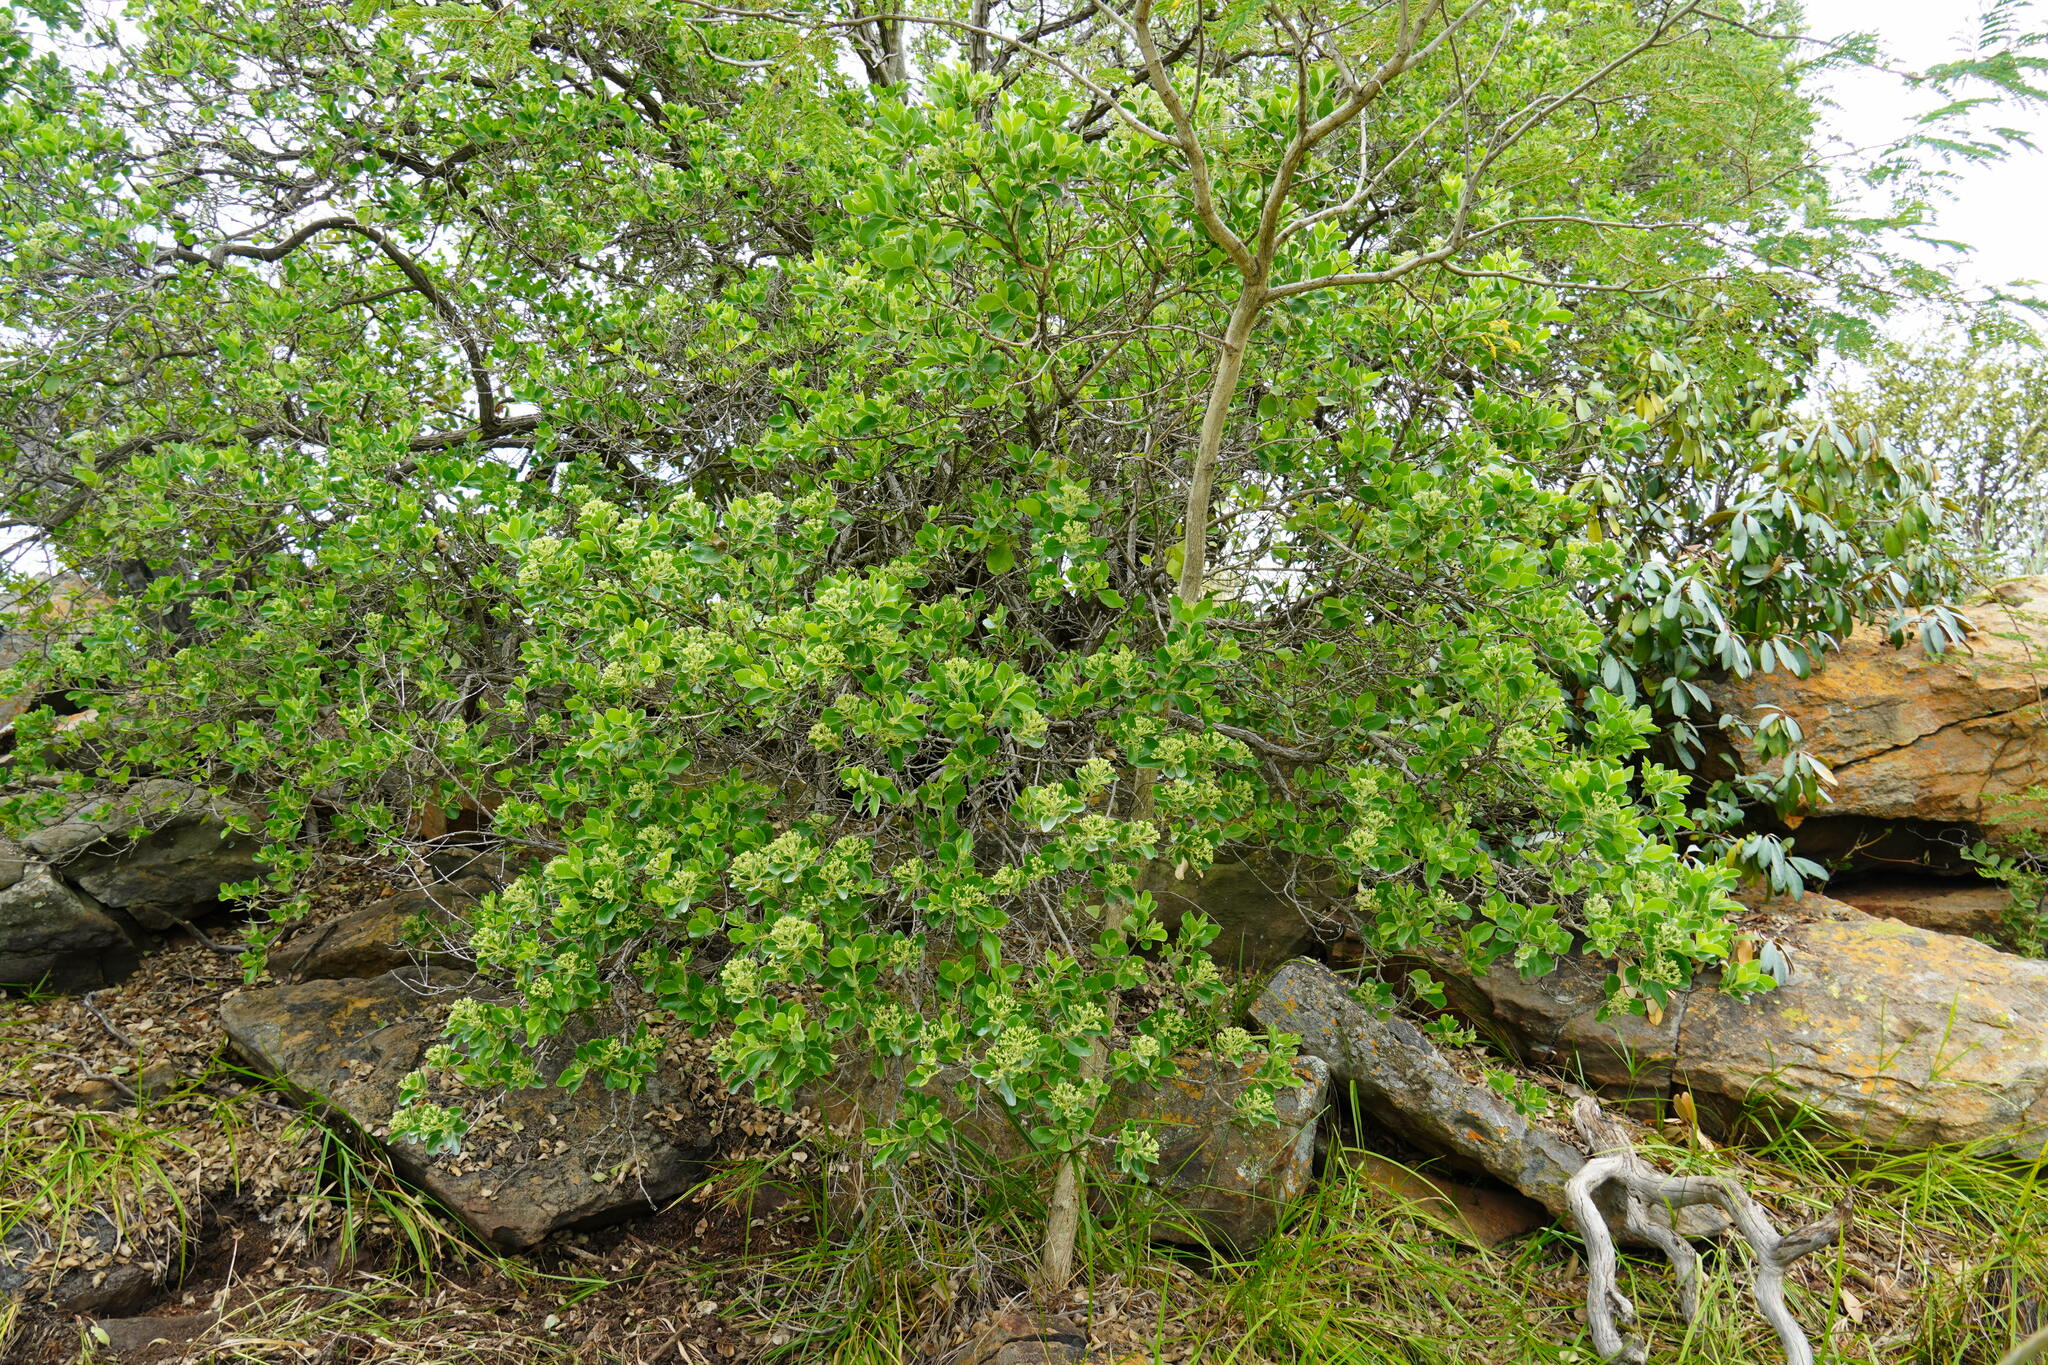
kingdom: Plantae
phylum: Tracheophyta
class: Magnoliopsida
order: Lamiales
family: Stilbaceae
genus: Nuxia
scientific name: Nuxia congesta
